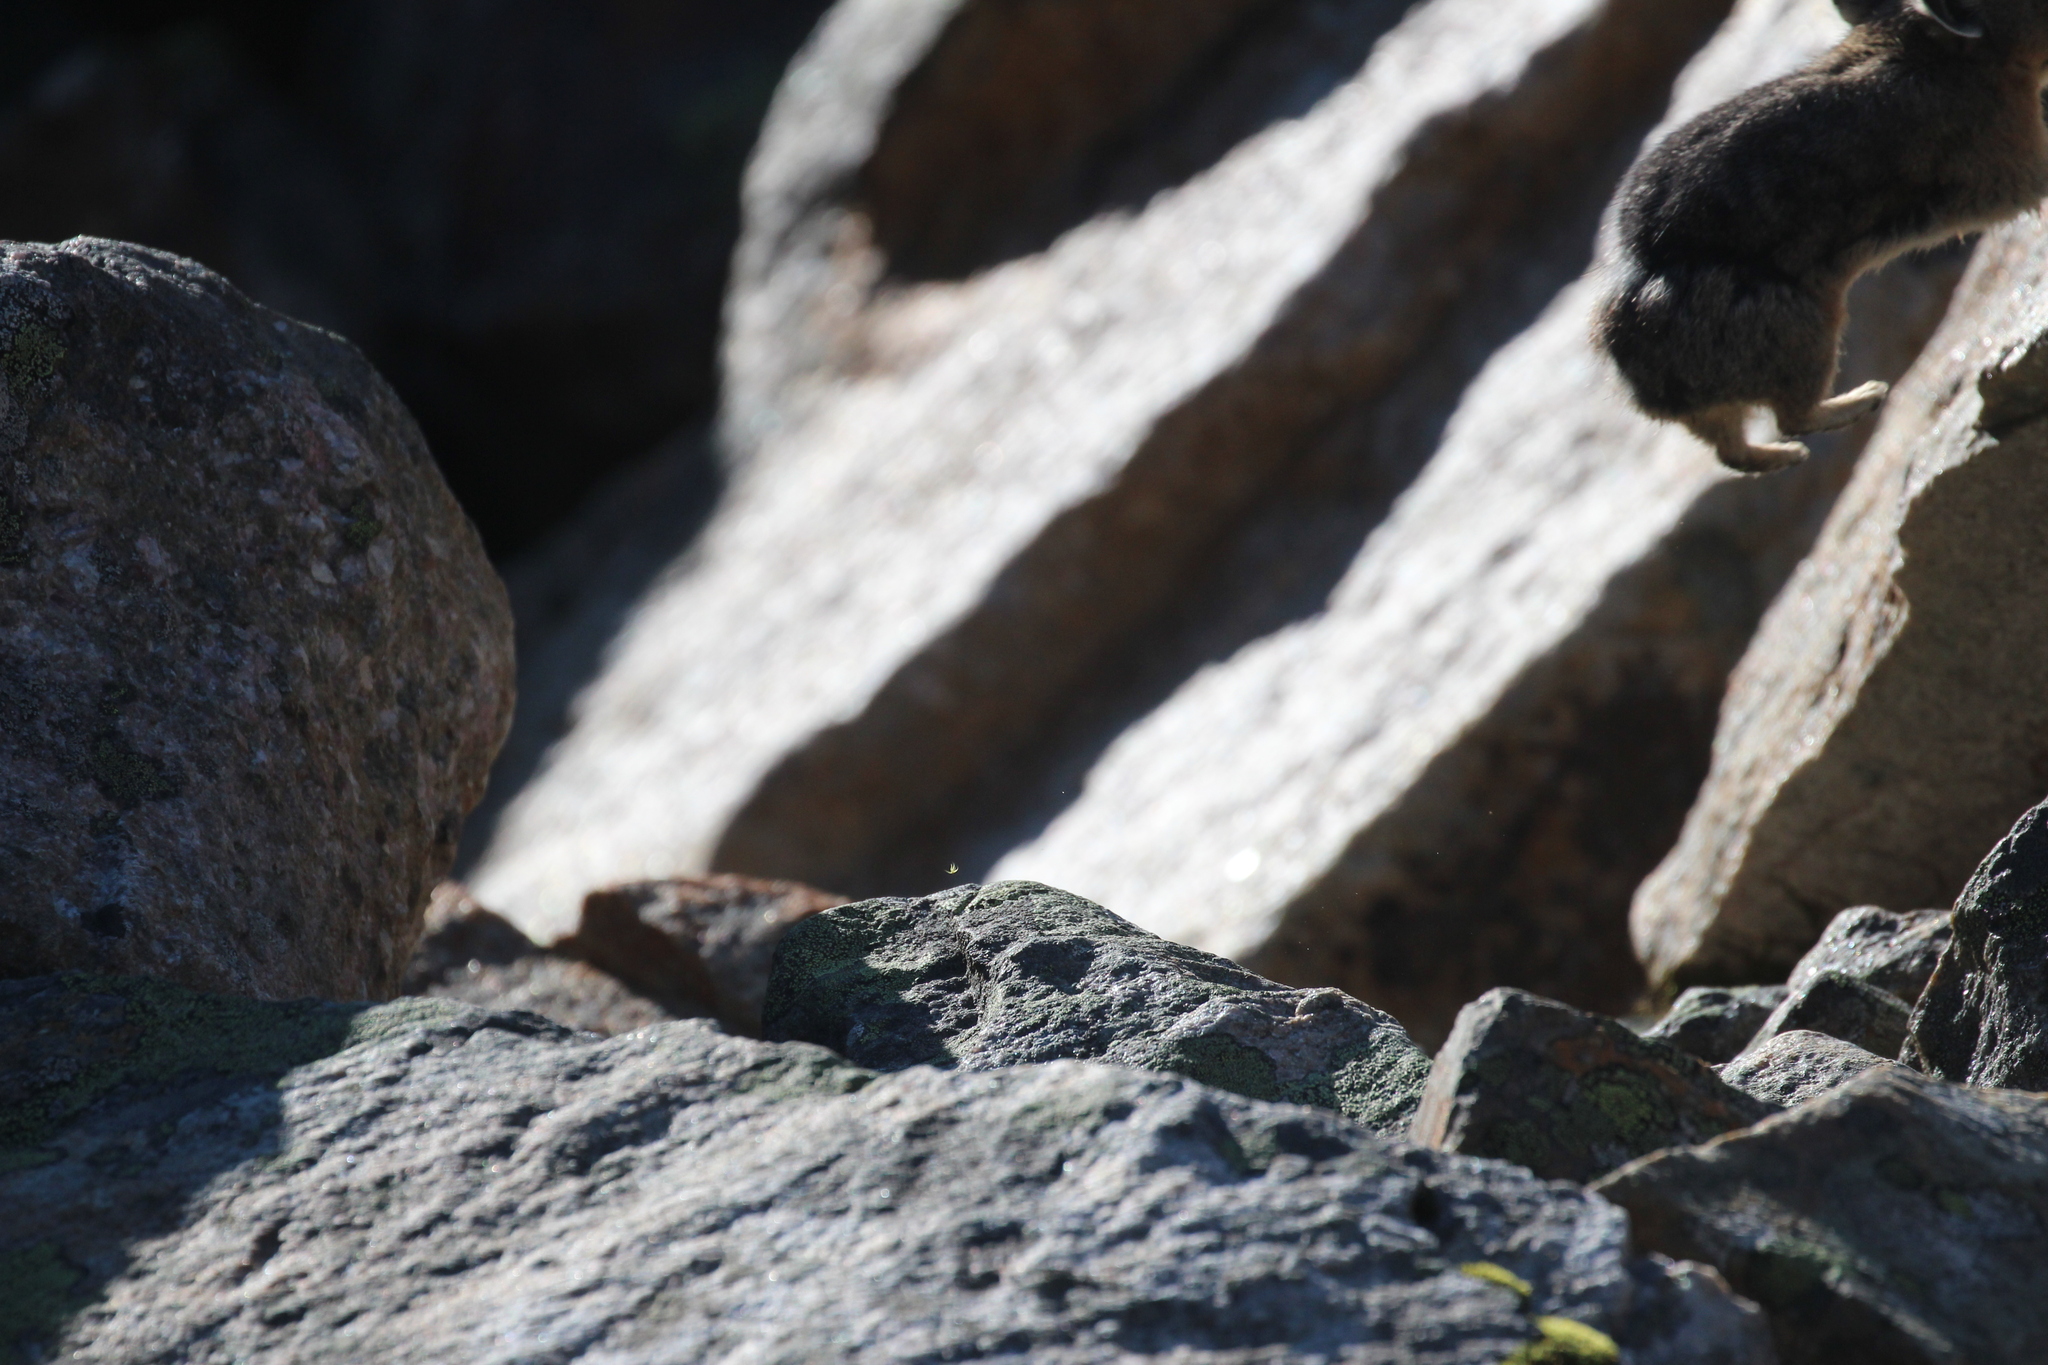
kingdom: Animalia
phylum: Chordata
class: Mammalia
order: Lagomorpha
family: Ochotonidae
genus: Ochotona
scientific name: Ochotona princeps
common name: American pika
